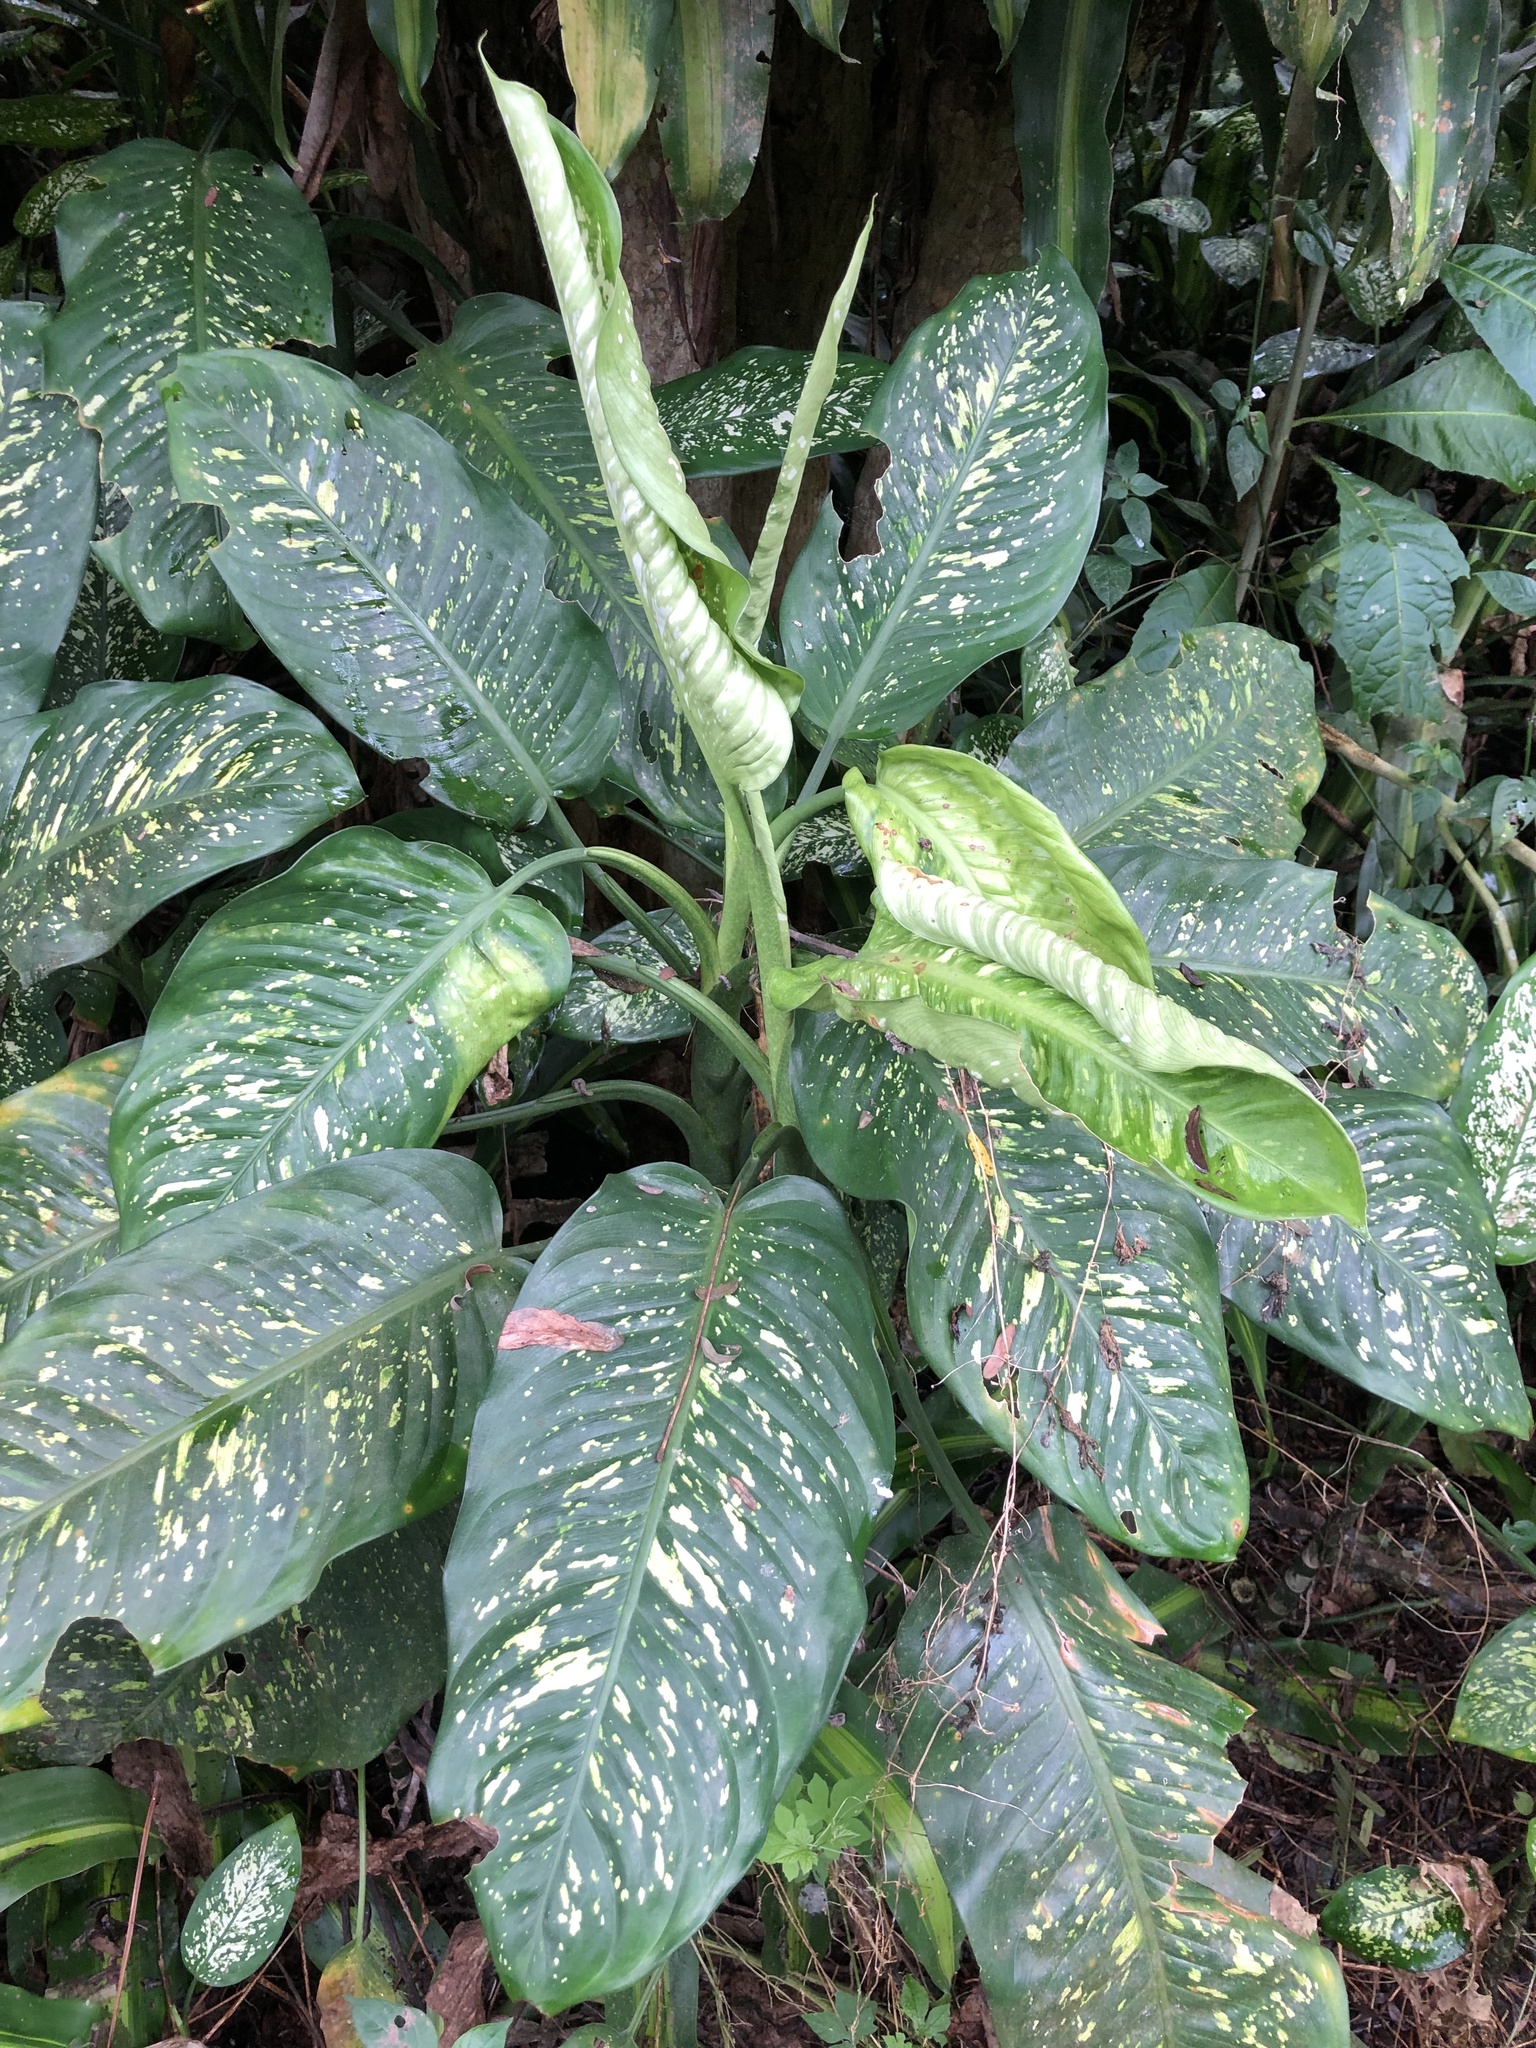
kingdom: Plantae
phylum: Tracheophyta
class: Liliopsida
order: Alismatales
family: Araceae
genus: Dieffenbachia
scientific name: Dieffenbachia seguine
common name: Dumbcane
